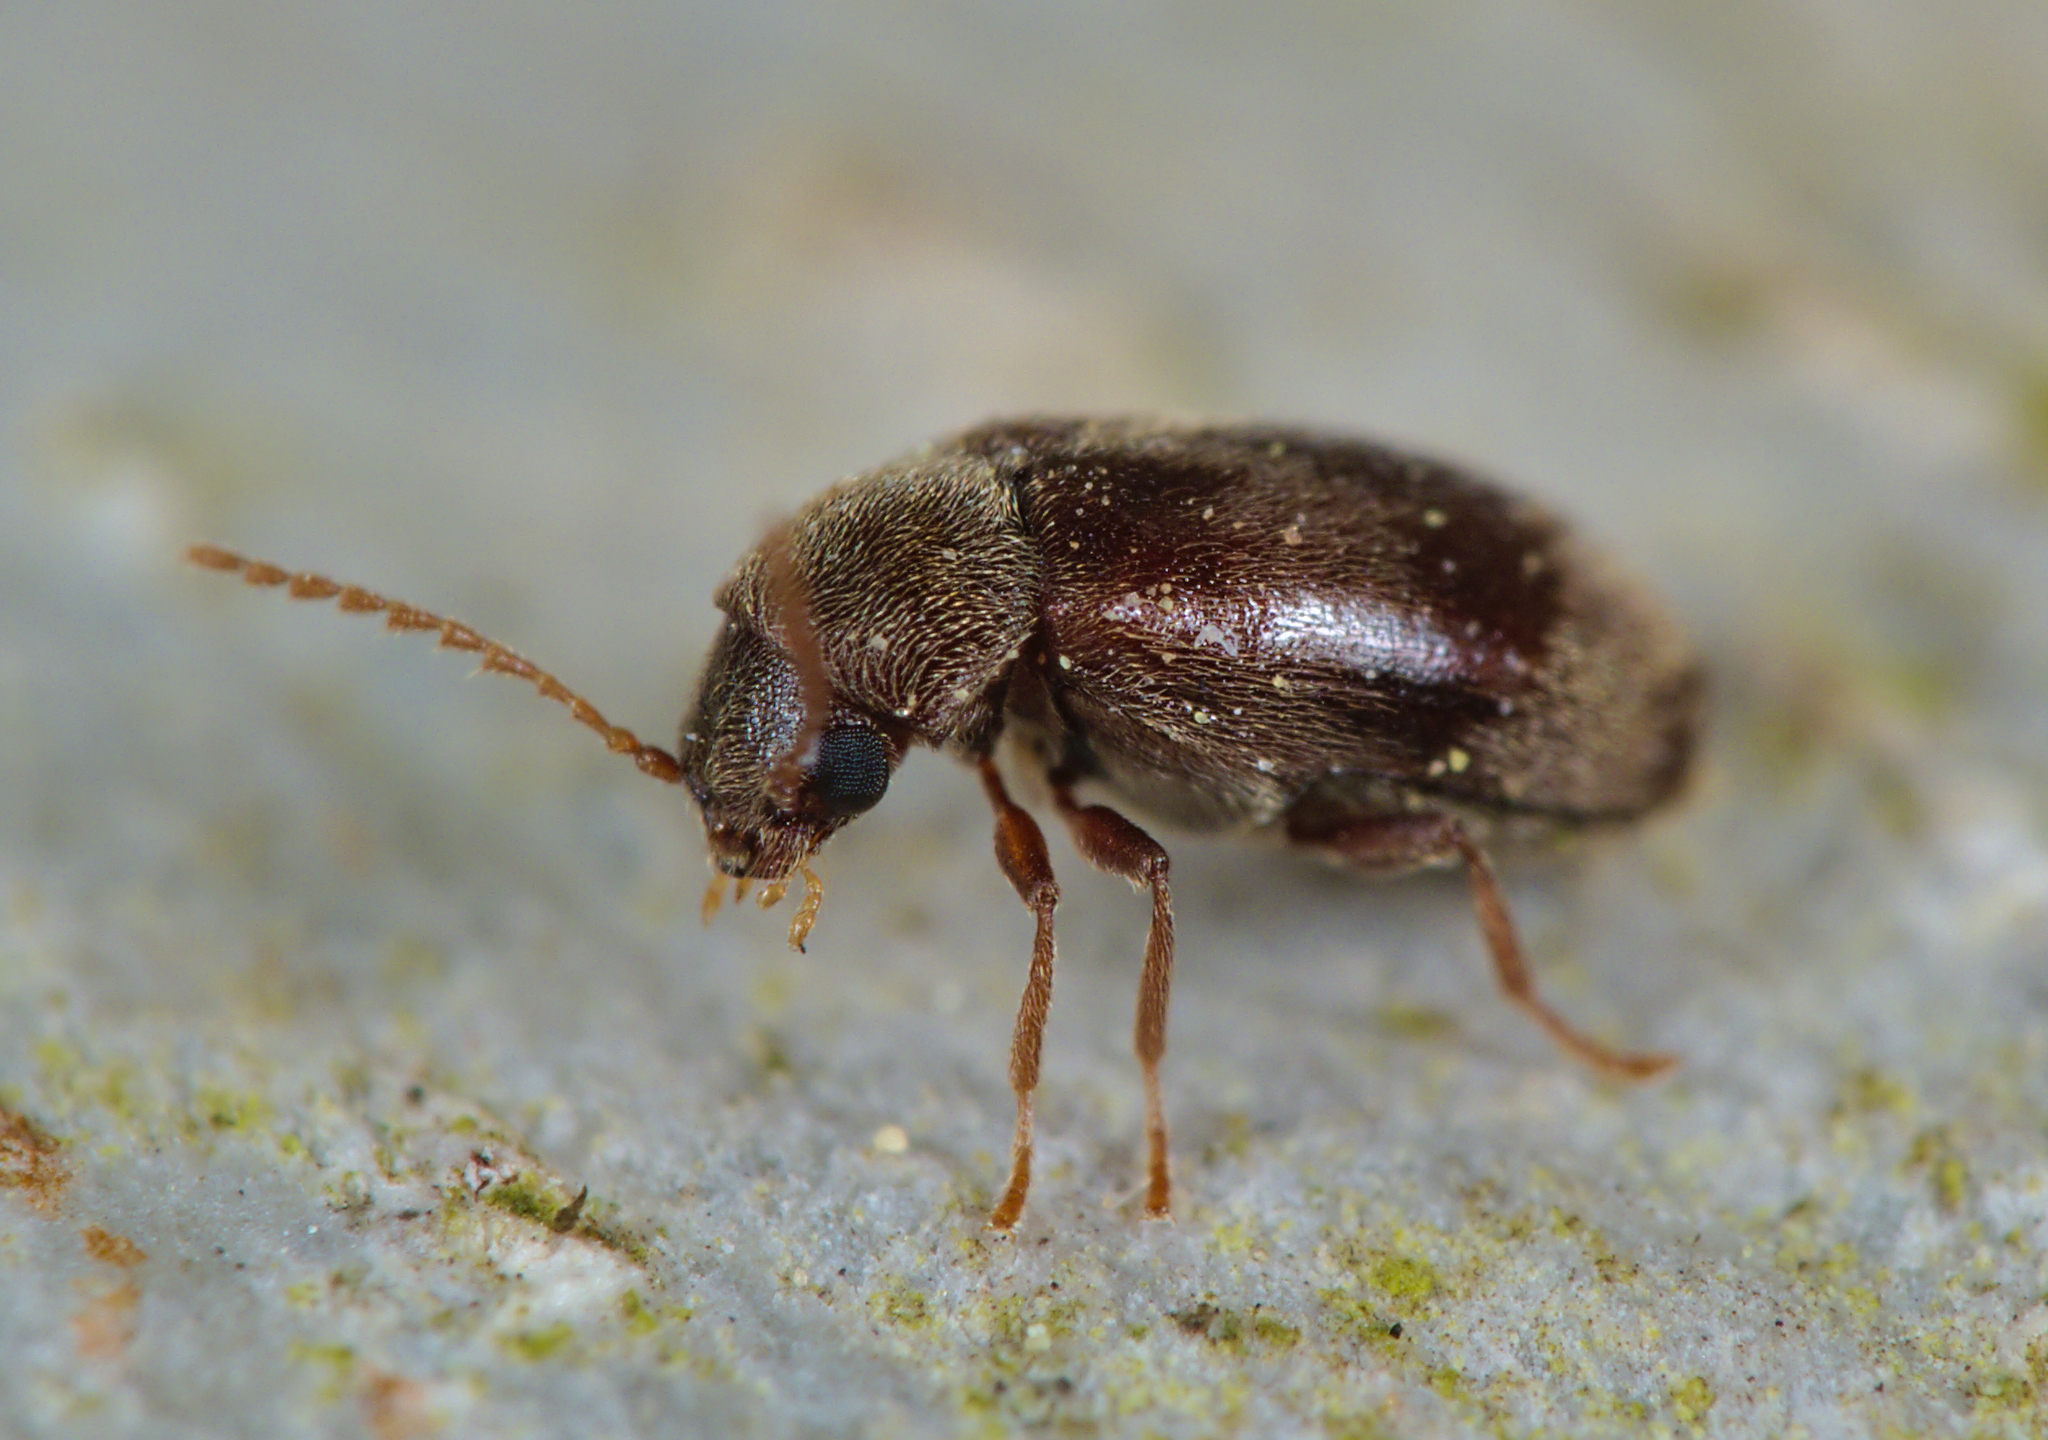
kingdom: Animalia
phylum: Arthropoda
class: Insecta
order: Coleoptera
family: Ptinidae
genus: Ochina
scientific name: Ochina ptinoides
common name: Ivy boring beetle
